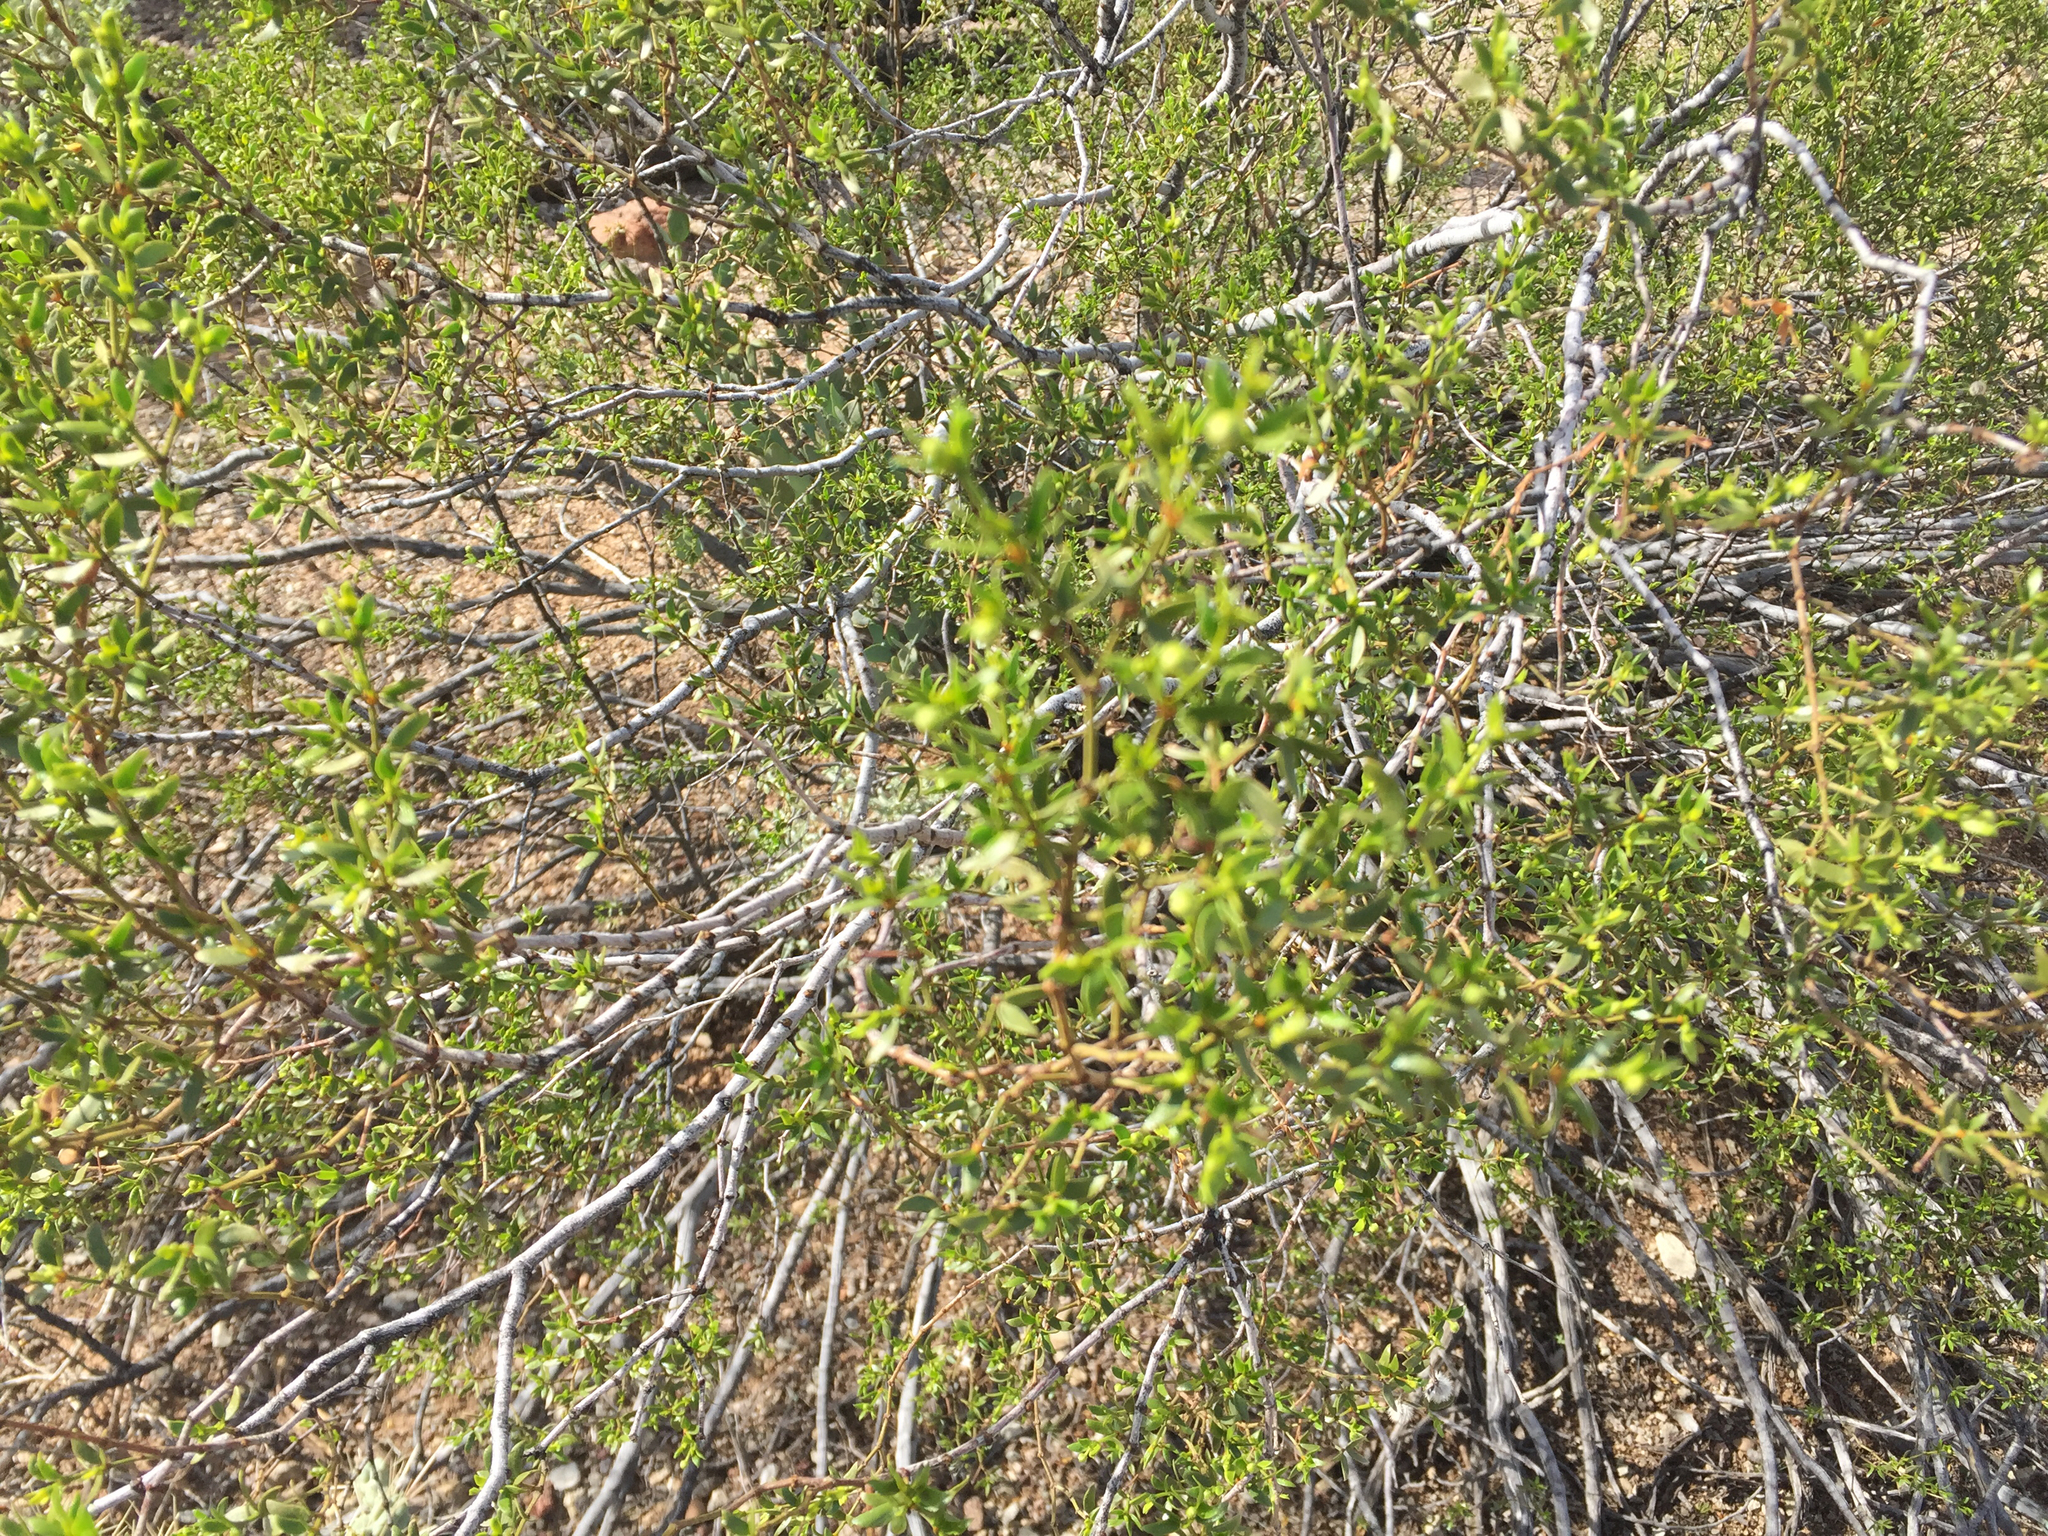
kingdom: Plantae
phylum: Tracheophyta
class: Magnoliopsida
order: Zygophyllales
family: Zygophyllaceae
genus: Larrea
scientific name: Larrea tridentata
